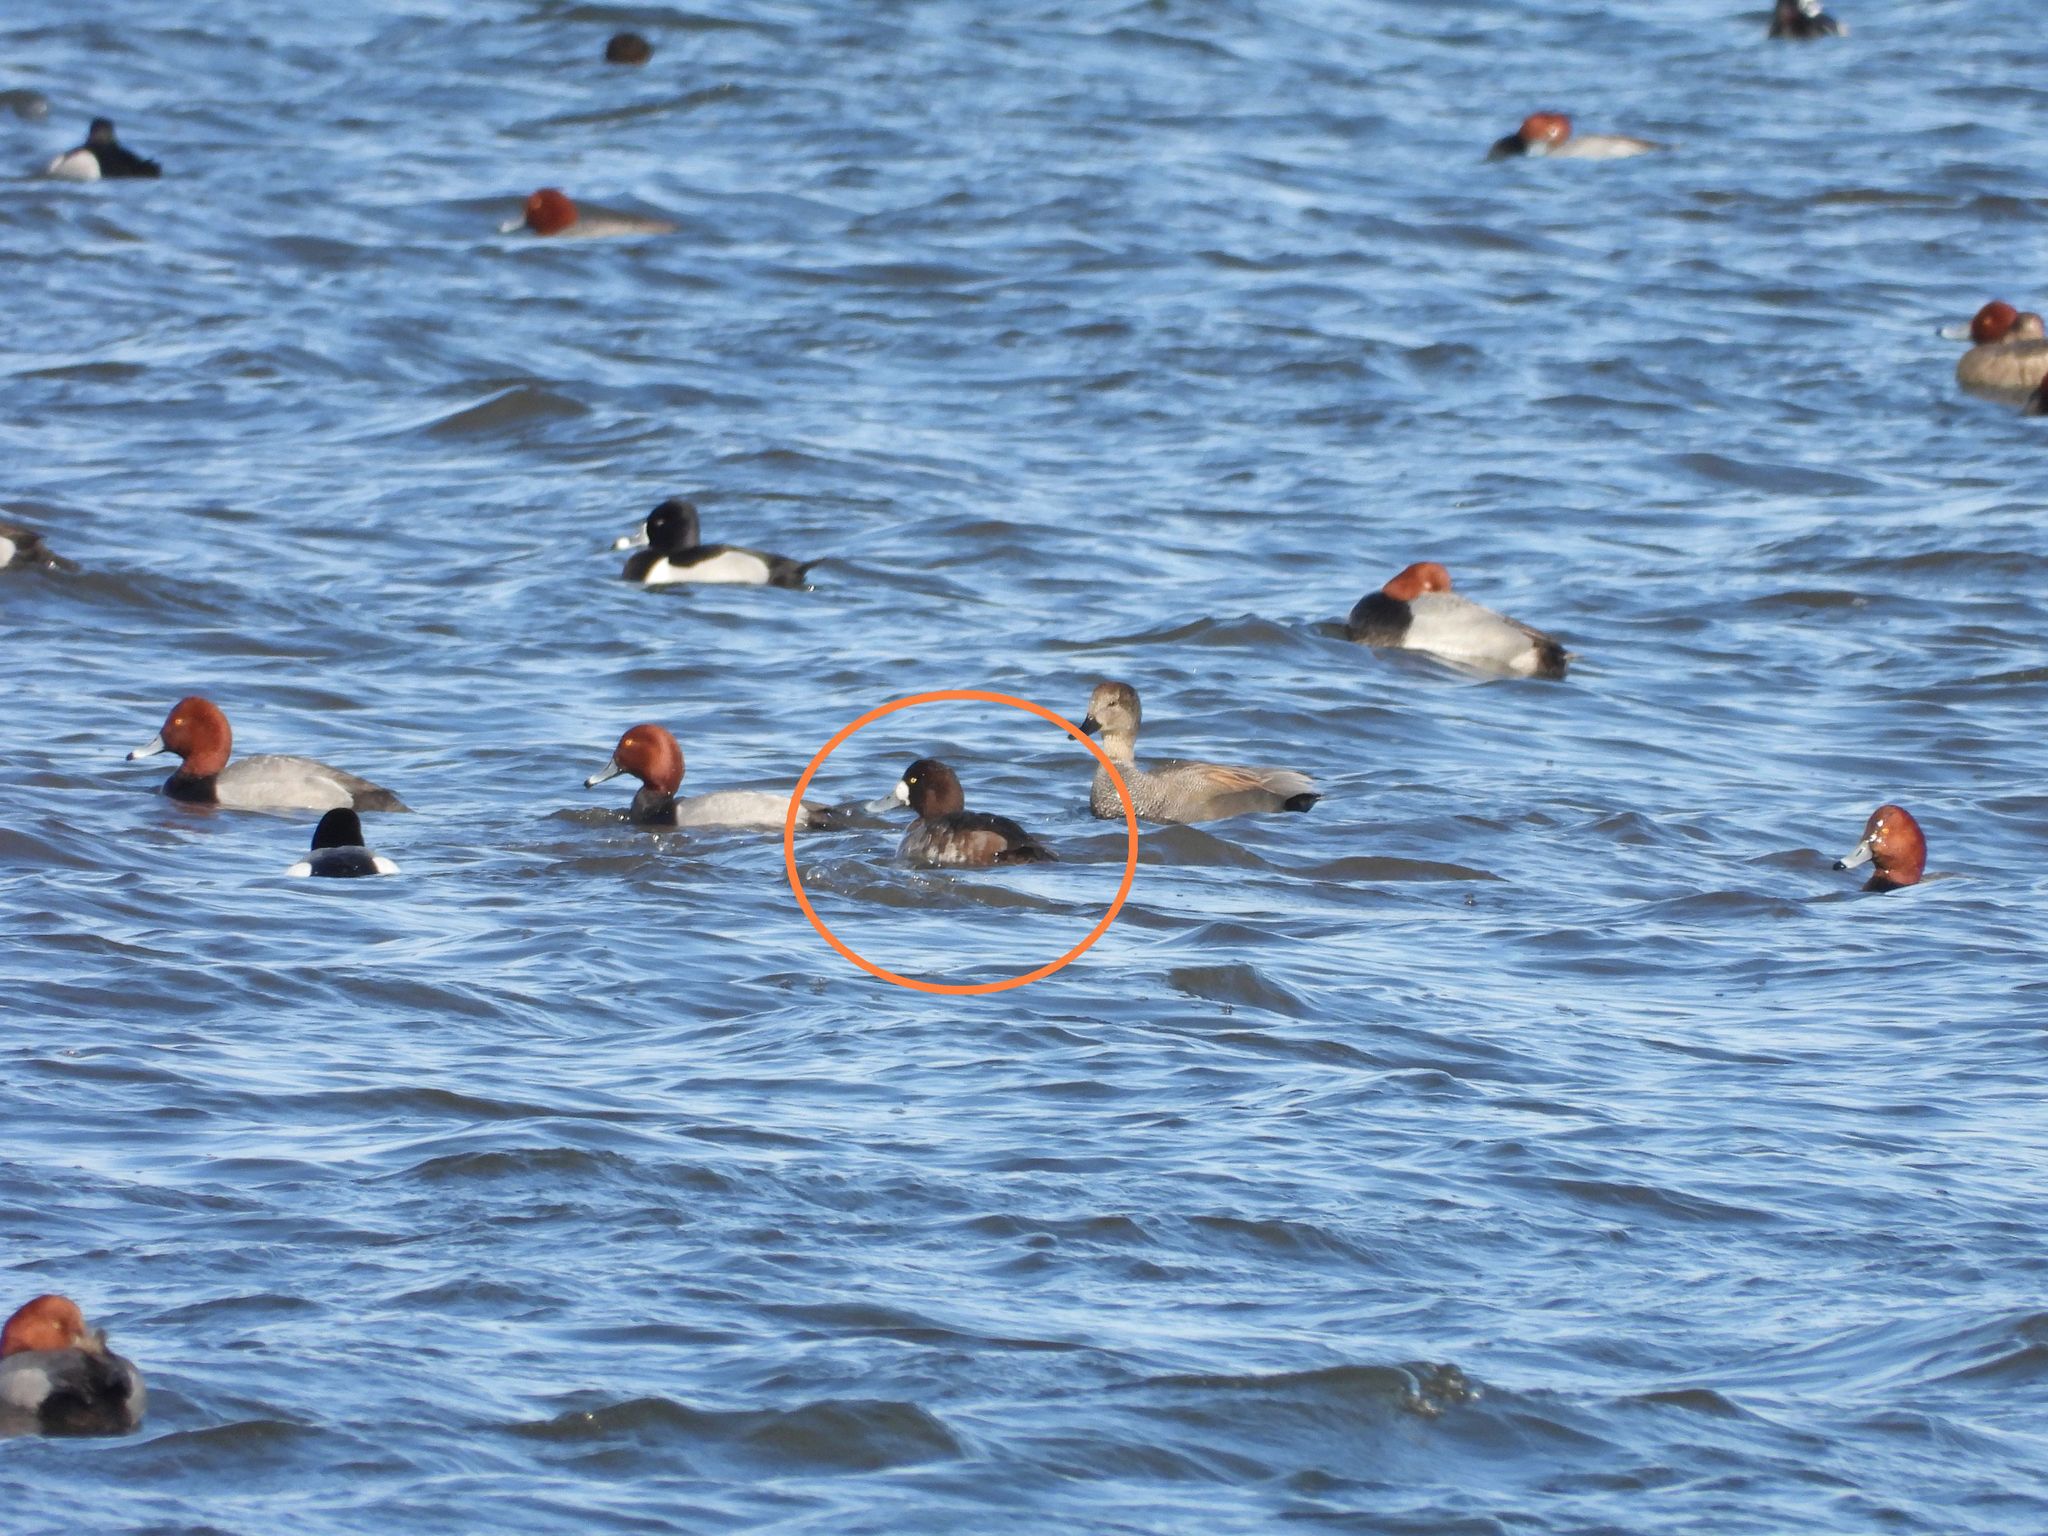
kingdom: Animalia
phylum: Chordata
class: Aves
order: Anseriformes
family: Anatidae
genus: Aythya
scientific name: Aythya marila
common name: Greater scaup
